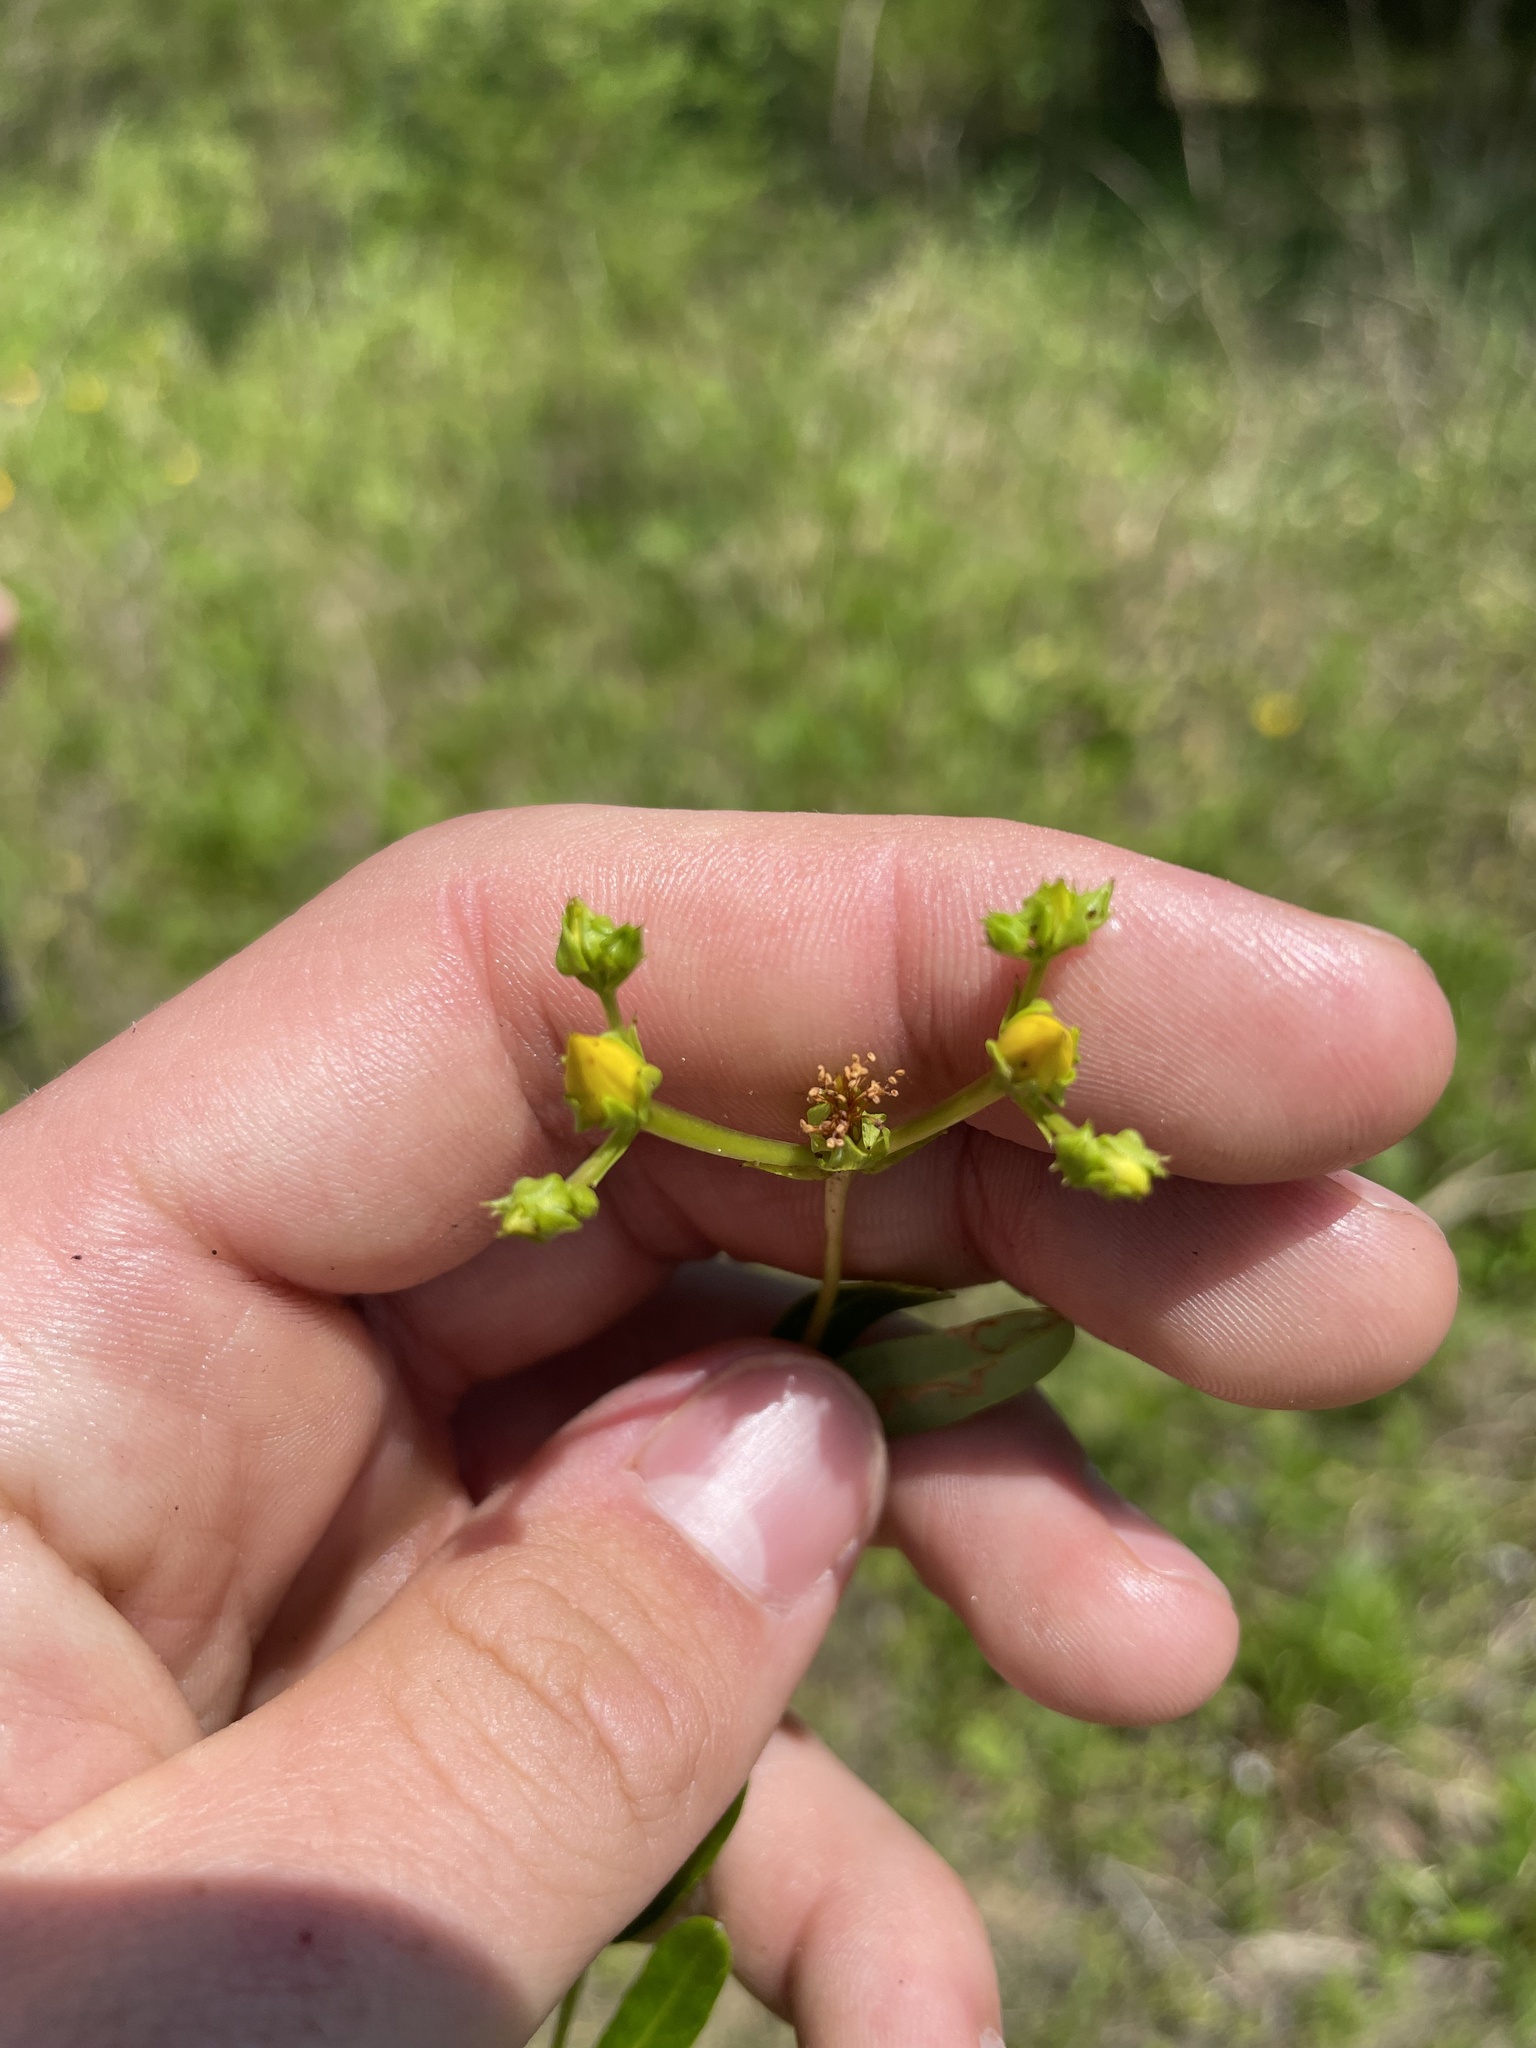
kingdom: Plantae
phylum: Tracheophyta
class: Magnoliopsida
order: Malpighiales
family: Hypericaceae
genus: Hypericum
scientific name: Hypericum sphaerocarpum
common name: Round-fruited st. john's-wort
